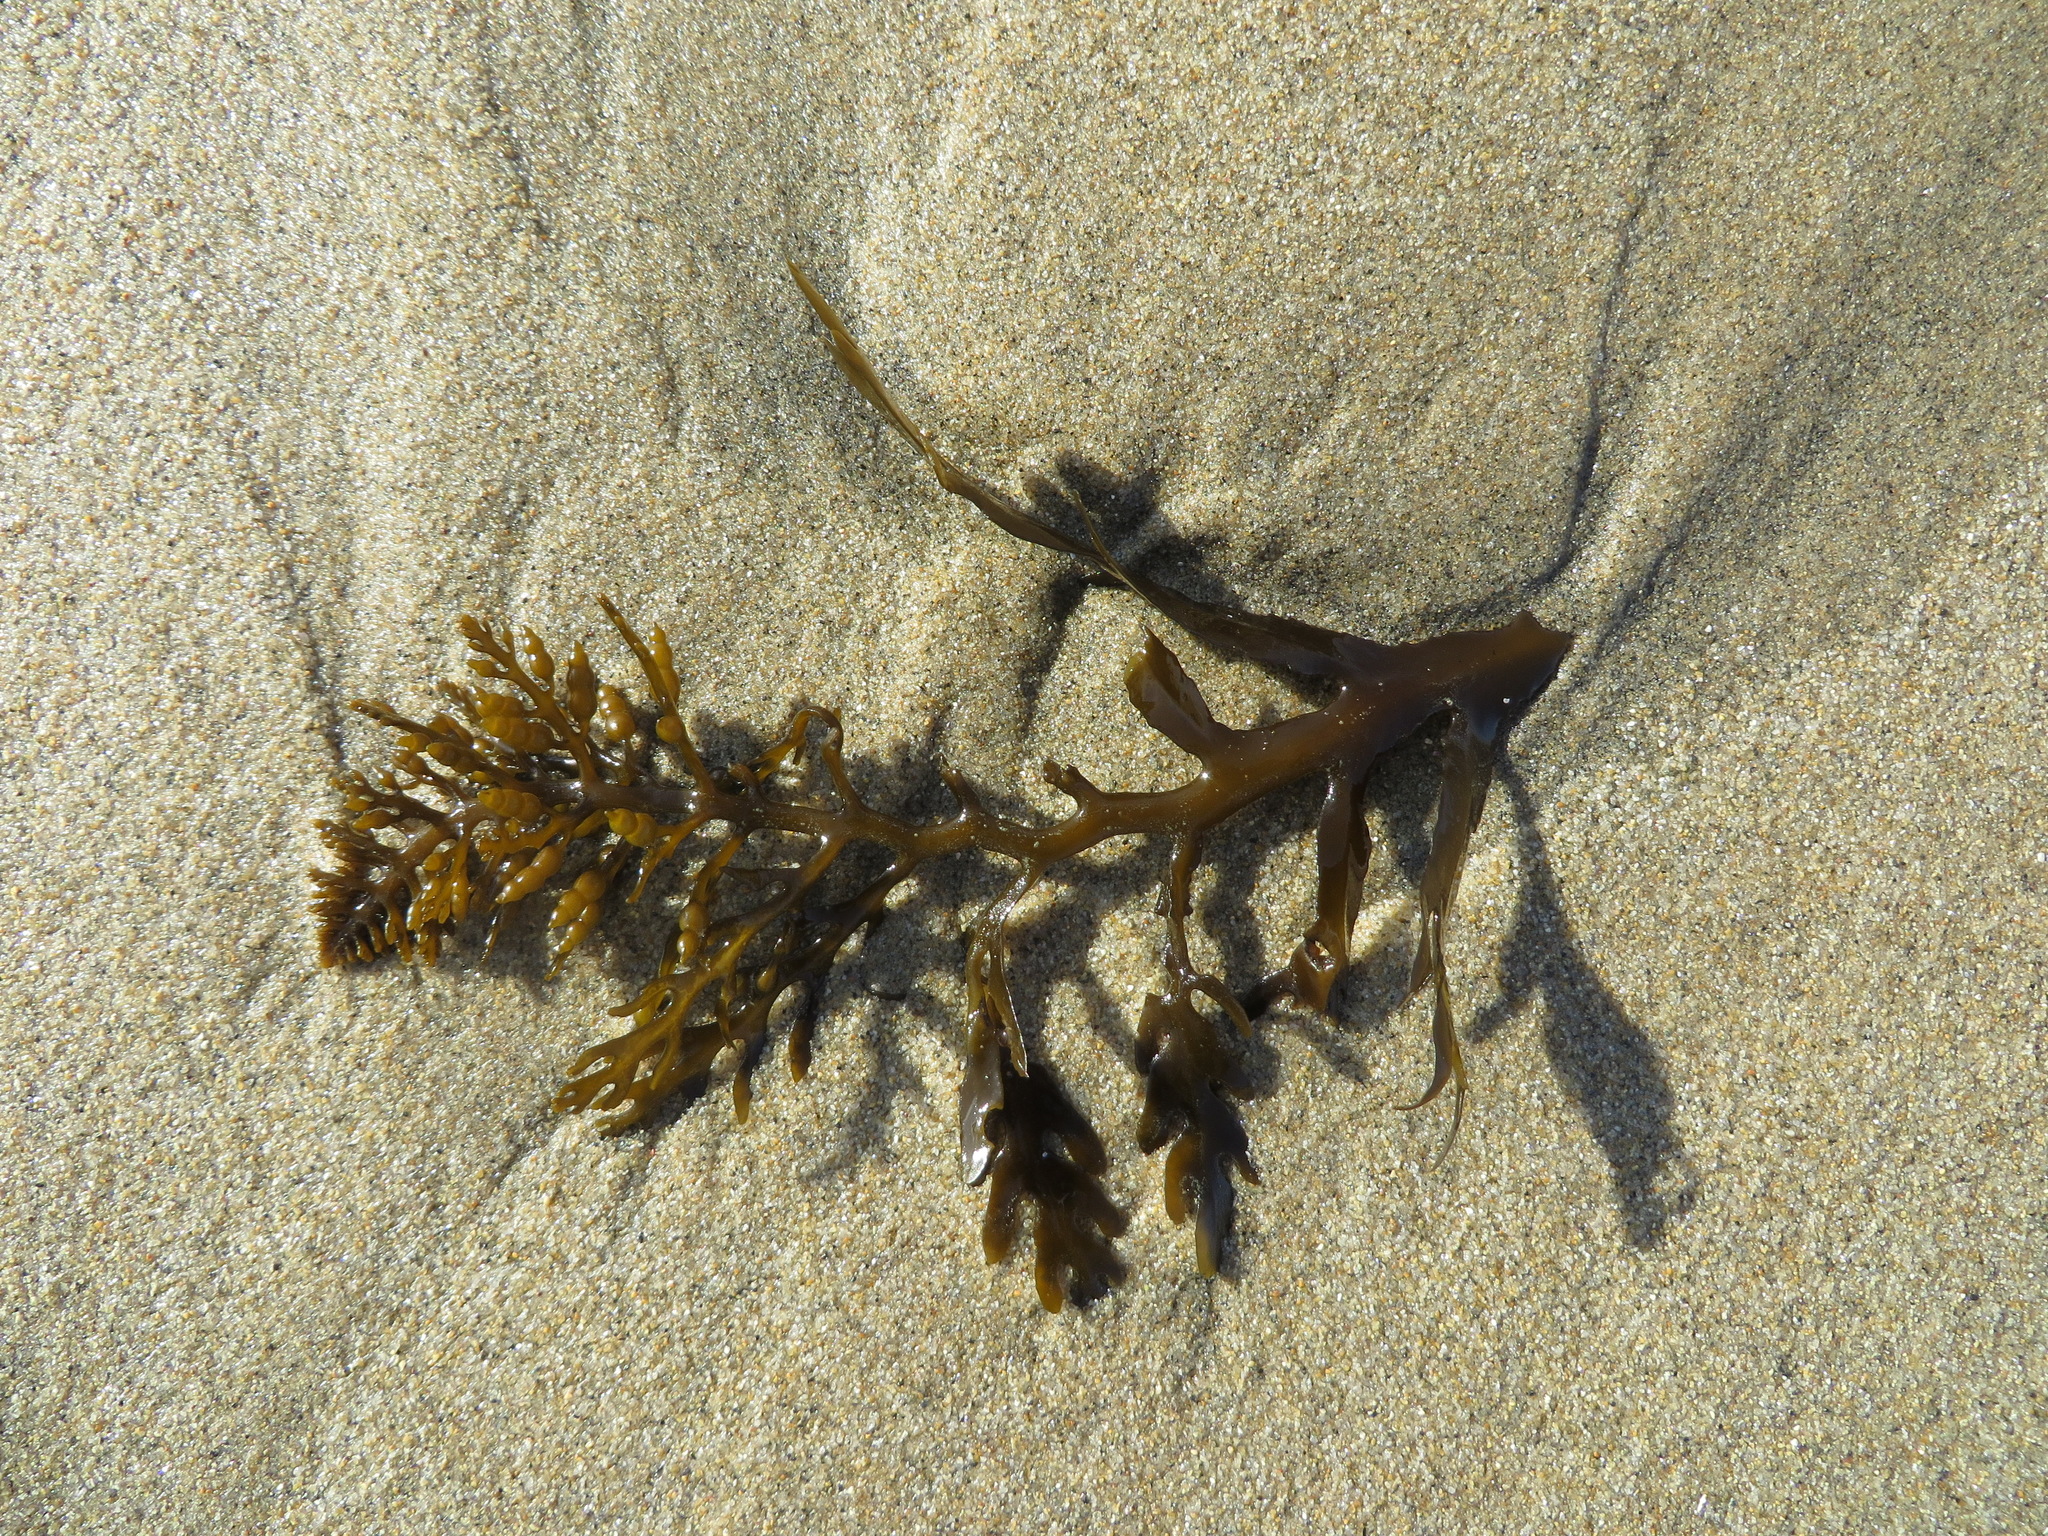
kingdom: Chromista
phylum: Ochrophyta
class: Phaeophyceae
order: Fucales
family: Sargassaceae
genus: Stephanocystis
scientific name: Stephanocystis
